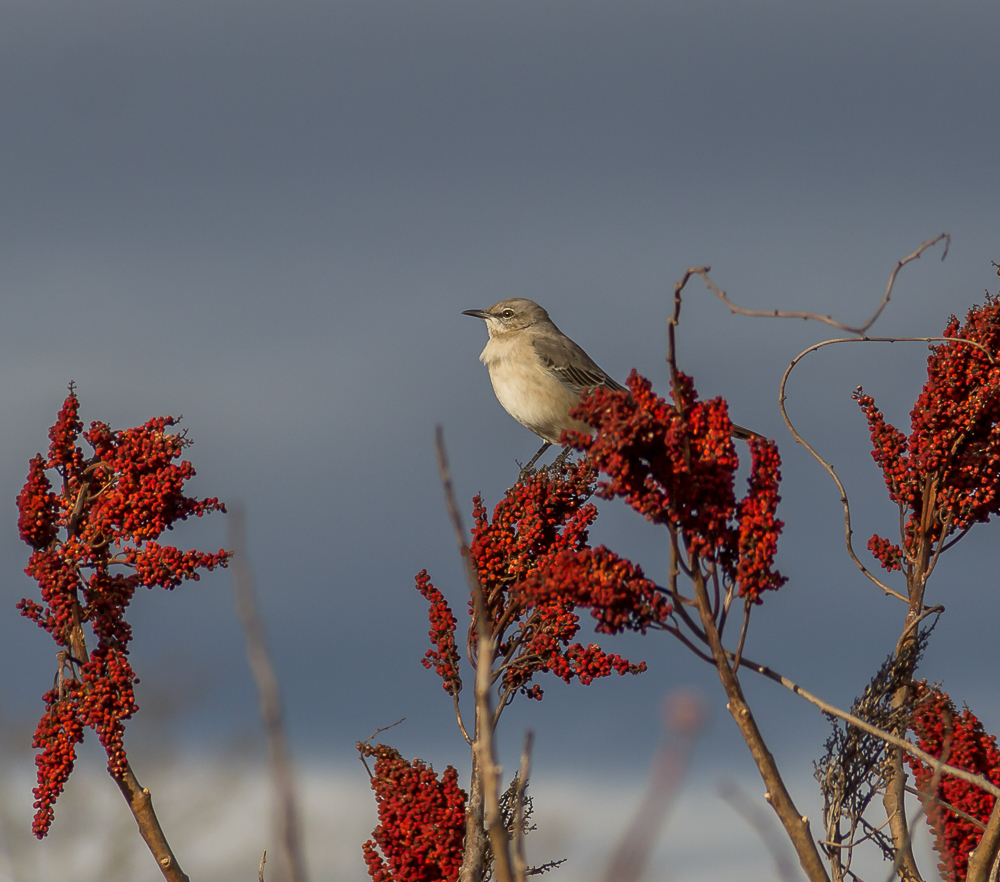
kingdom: Animalia
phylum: Chordata
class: Aves
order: Passeriformes
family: Mimidae
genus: Mimus
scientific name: Mimus polyglottos
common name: Northern mockingbird
